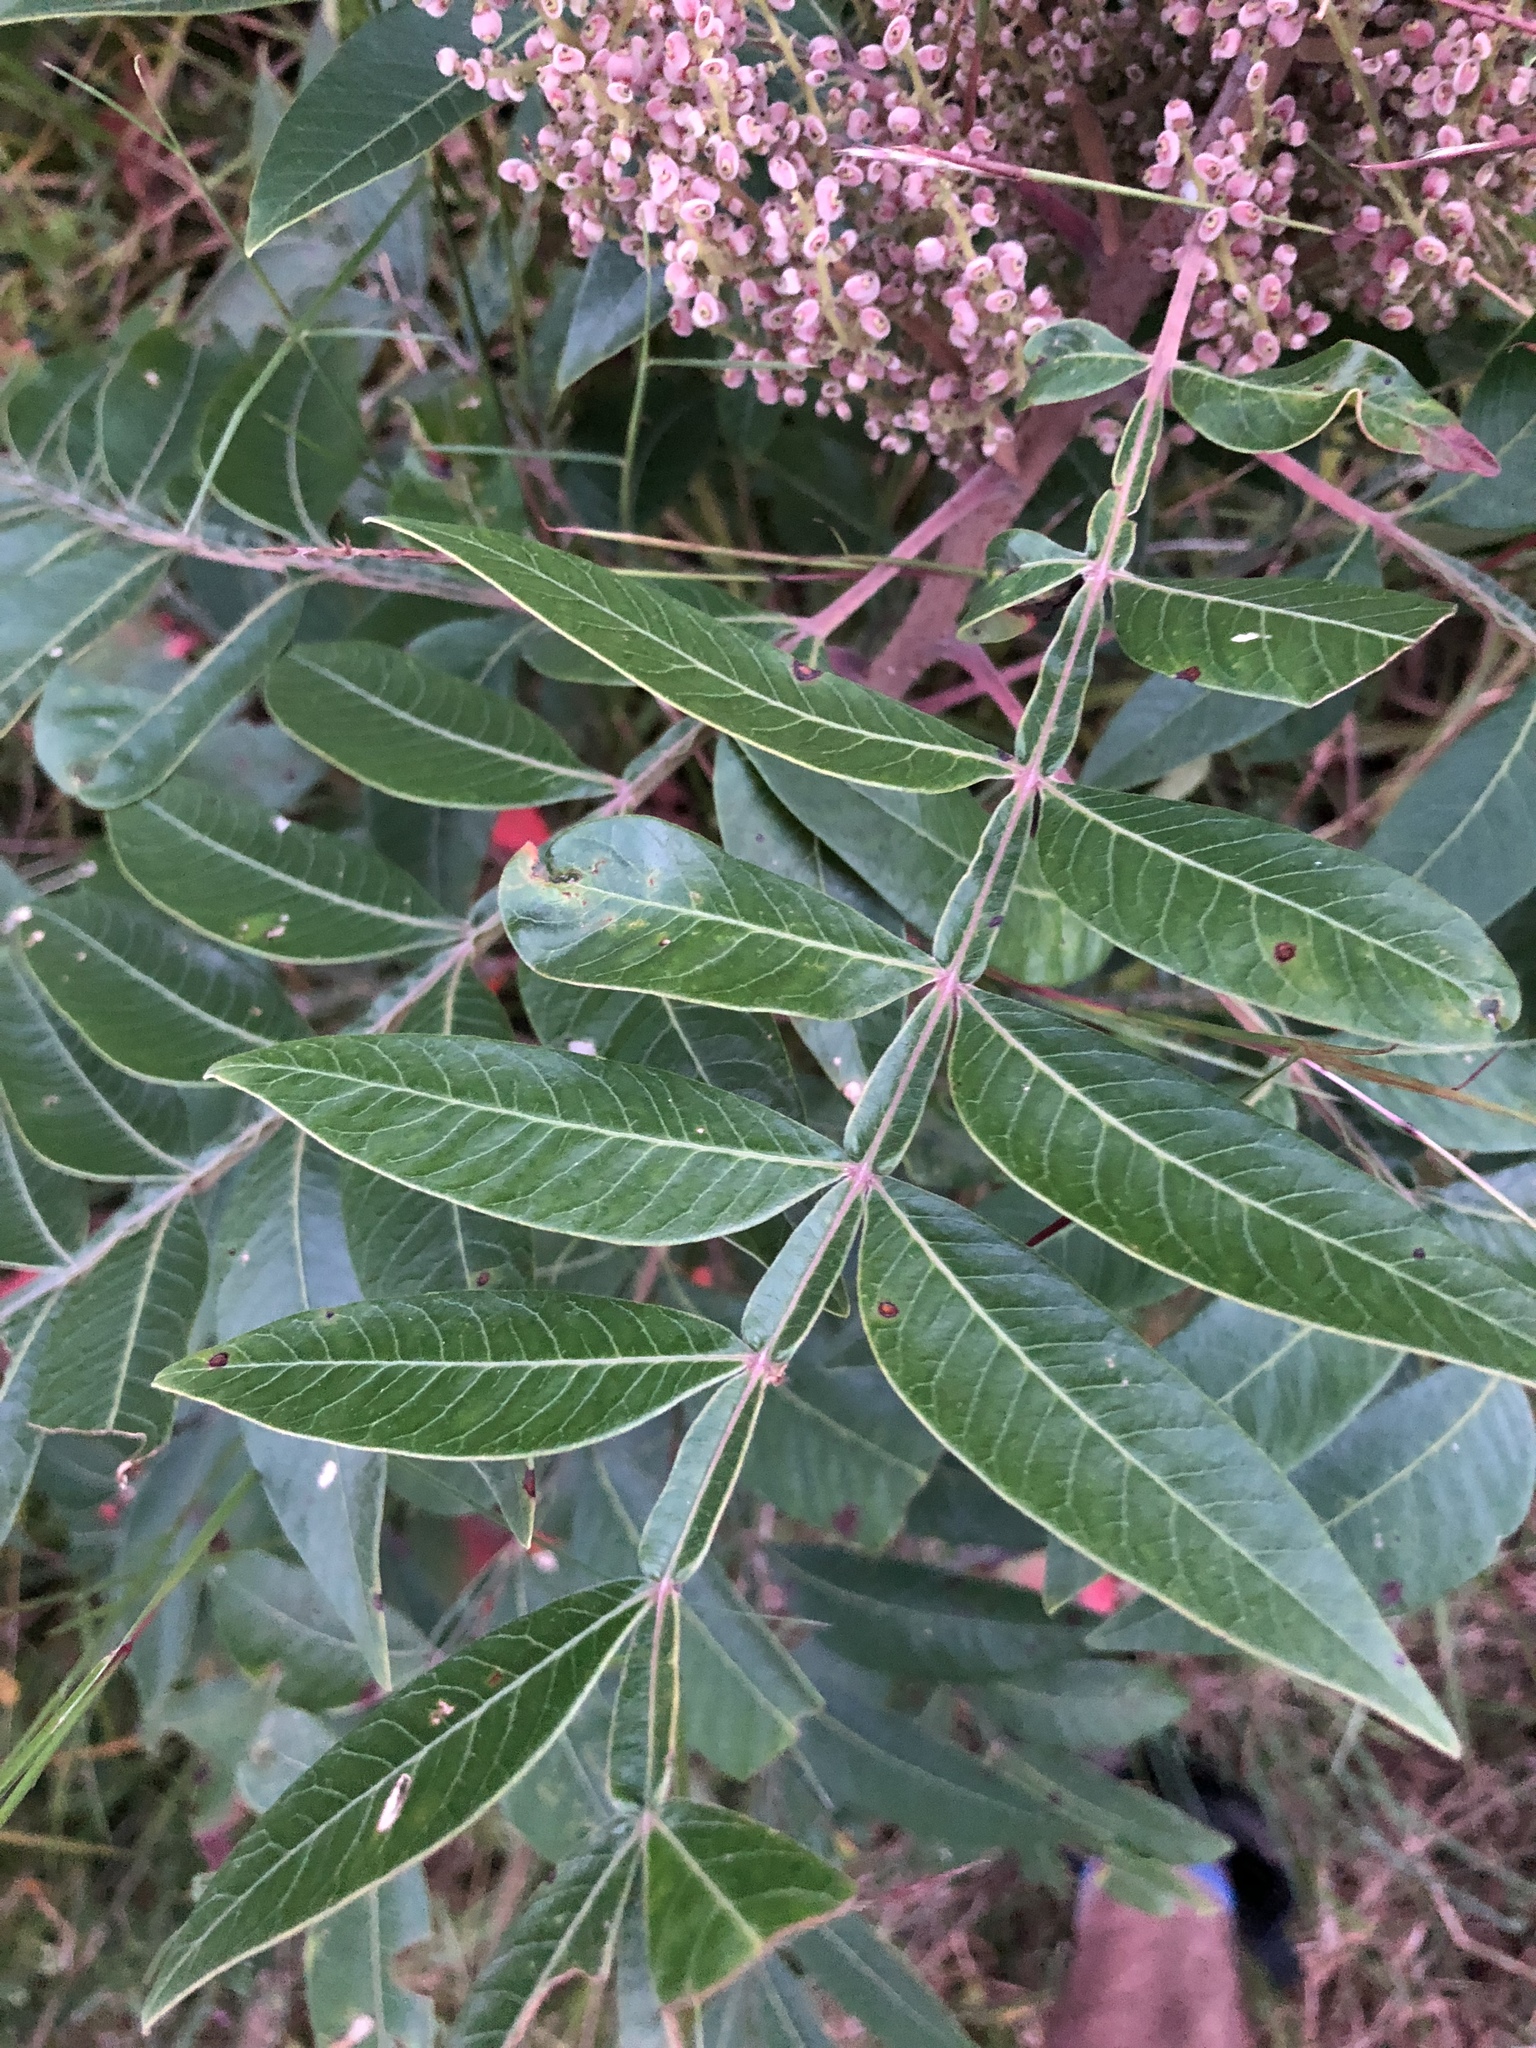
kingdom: Plantae
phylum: Tracheophyta
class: Magnoliopsida
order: Sapindales
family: Anacardiaceae
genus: Rhus
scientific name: Rhus copallina
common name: Shining sumac
